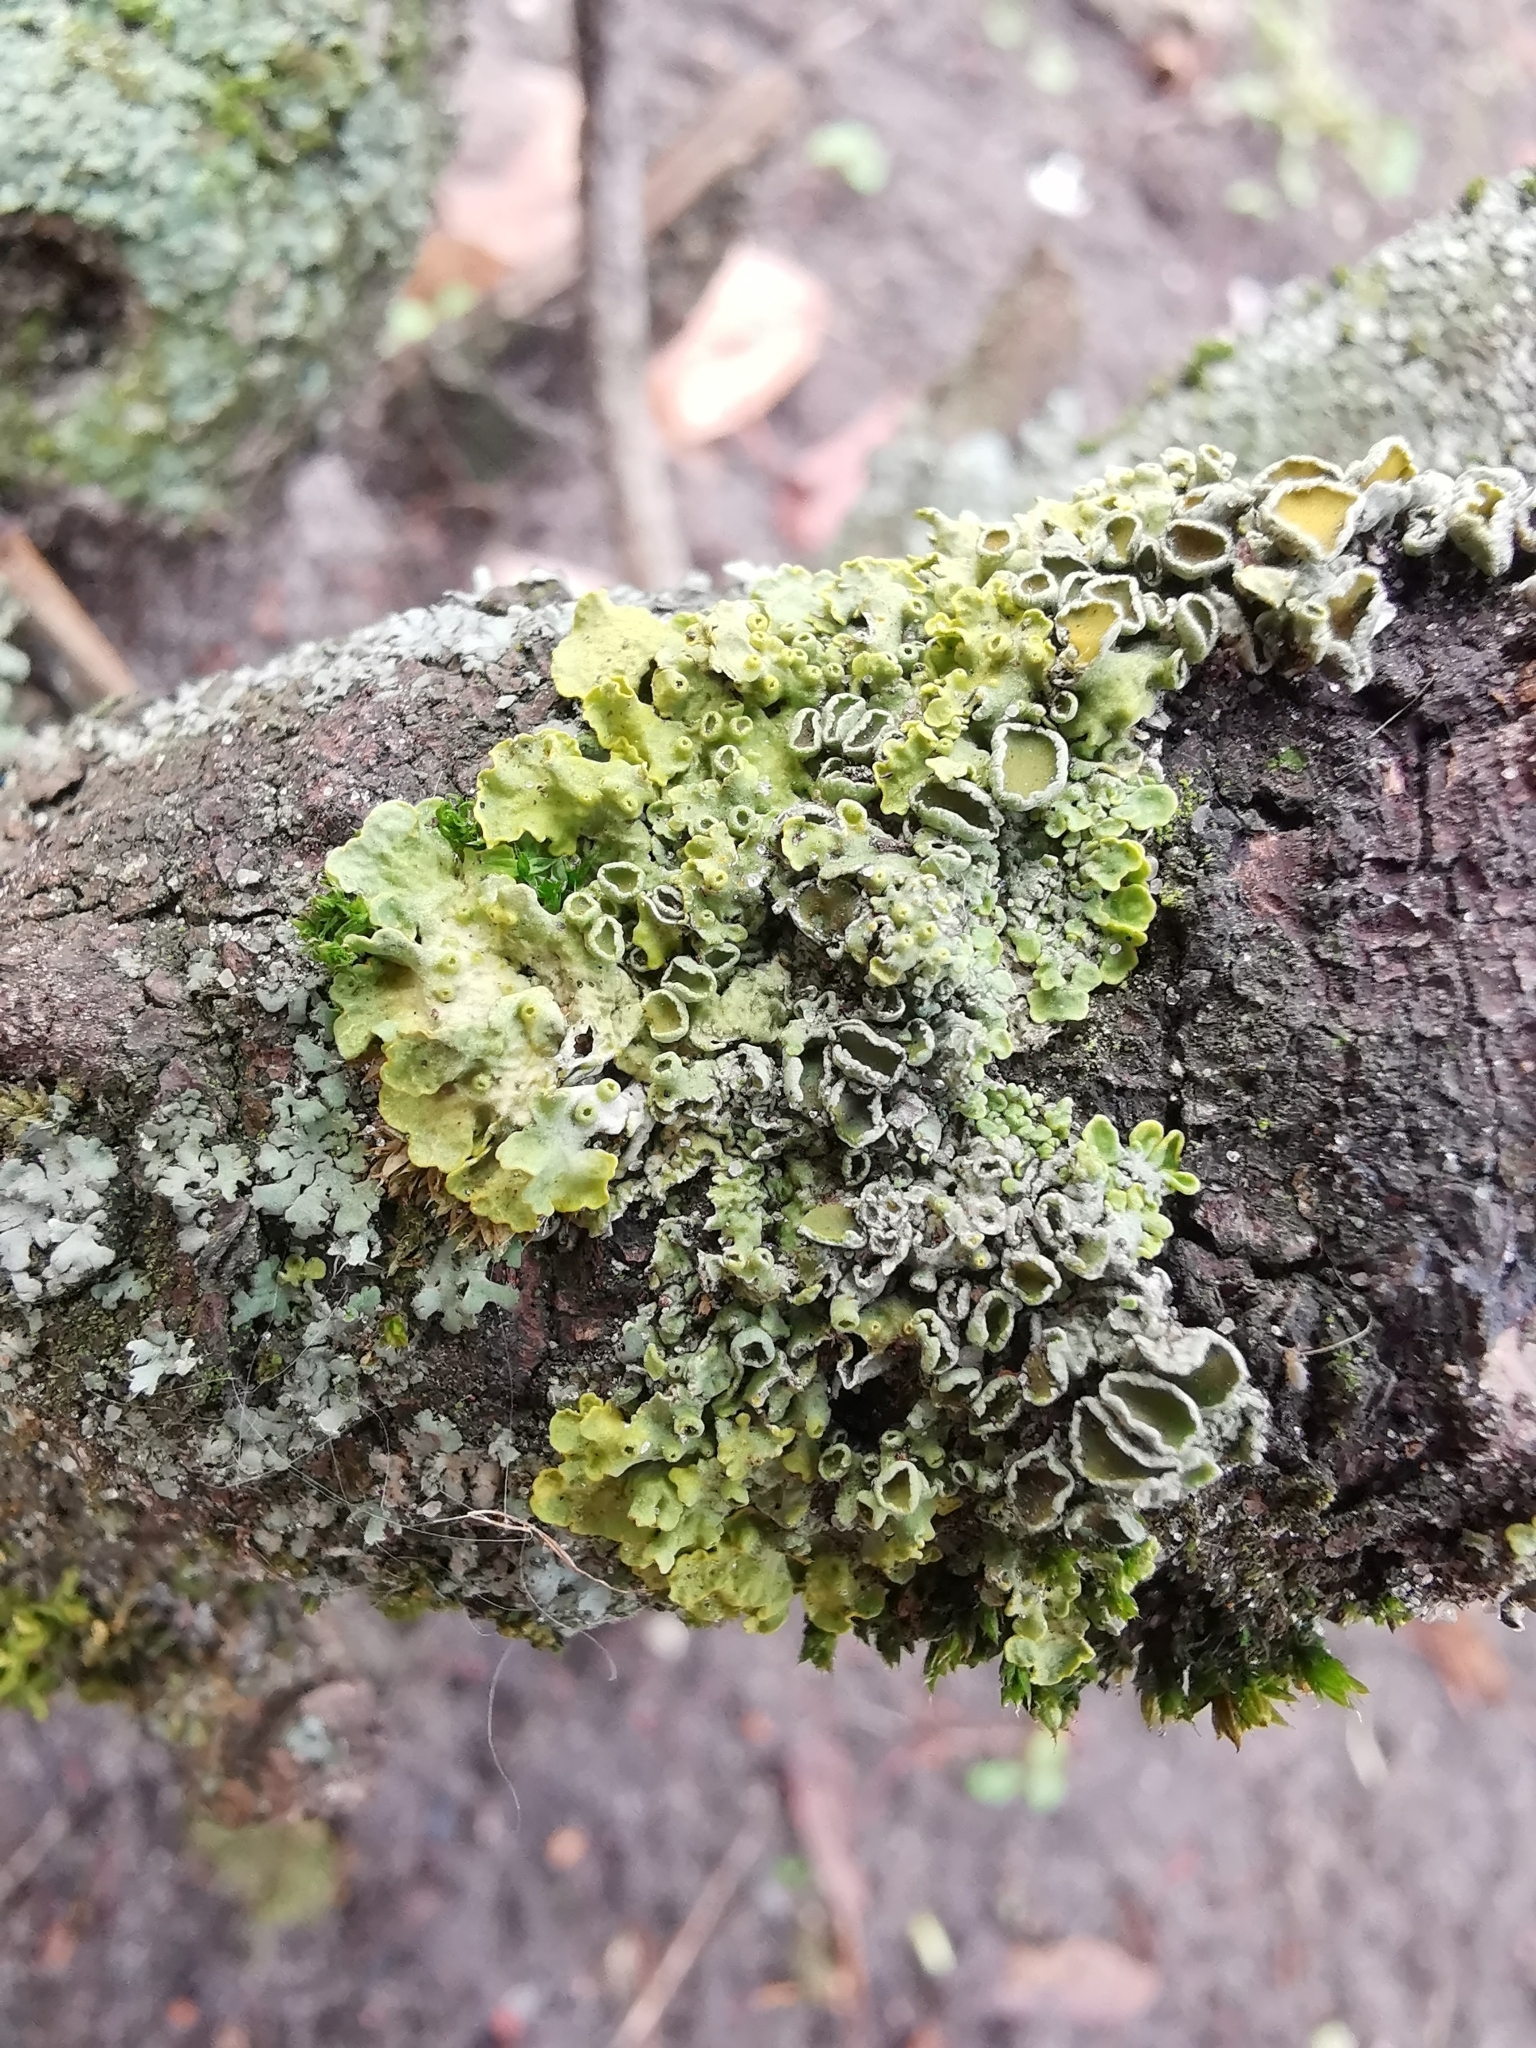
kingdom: Fungi
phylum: Ascomycota
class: Lecanoromycetes
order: Teloschistales
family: Teloschistaceae
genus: Xanthoria
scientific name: Xanthoria parietina
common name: Common orange lichen
